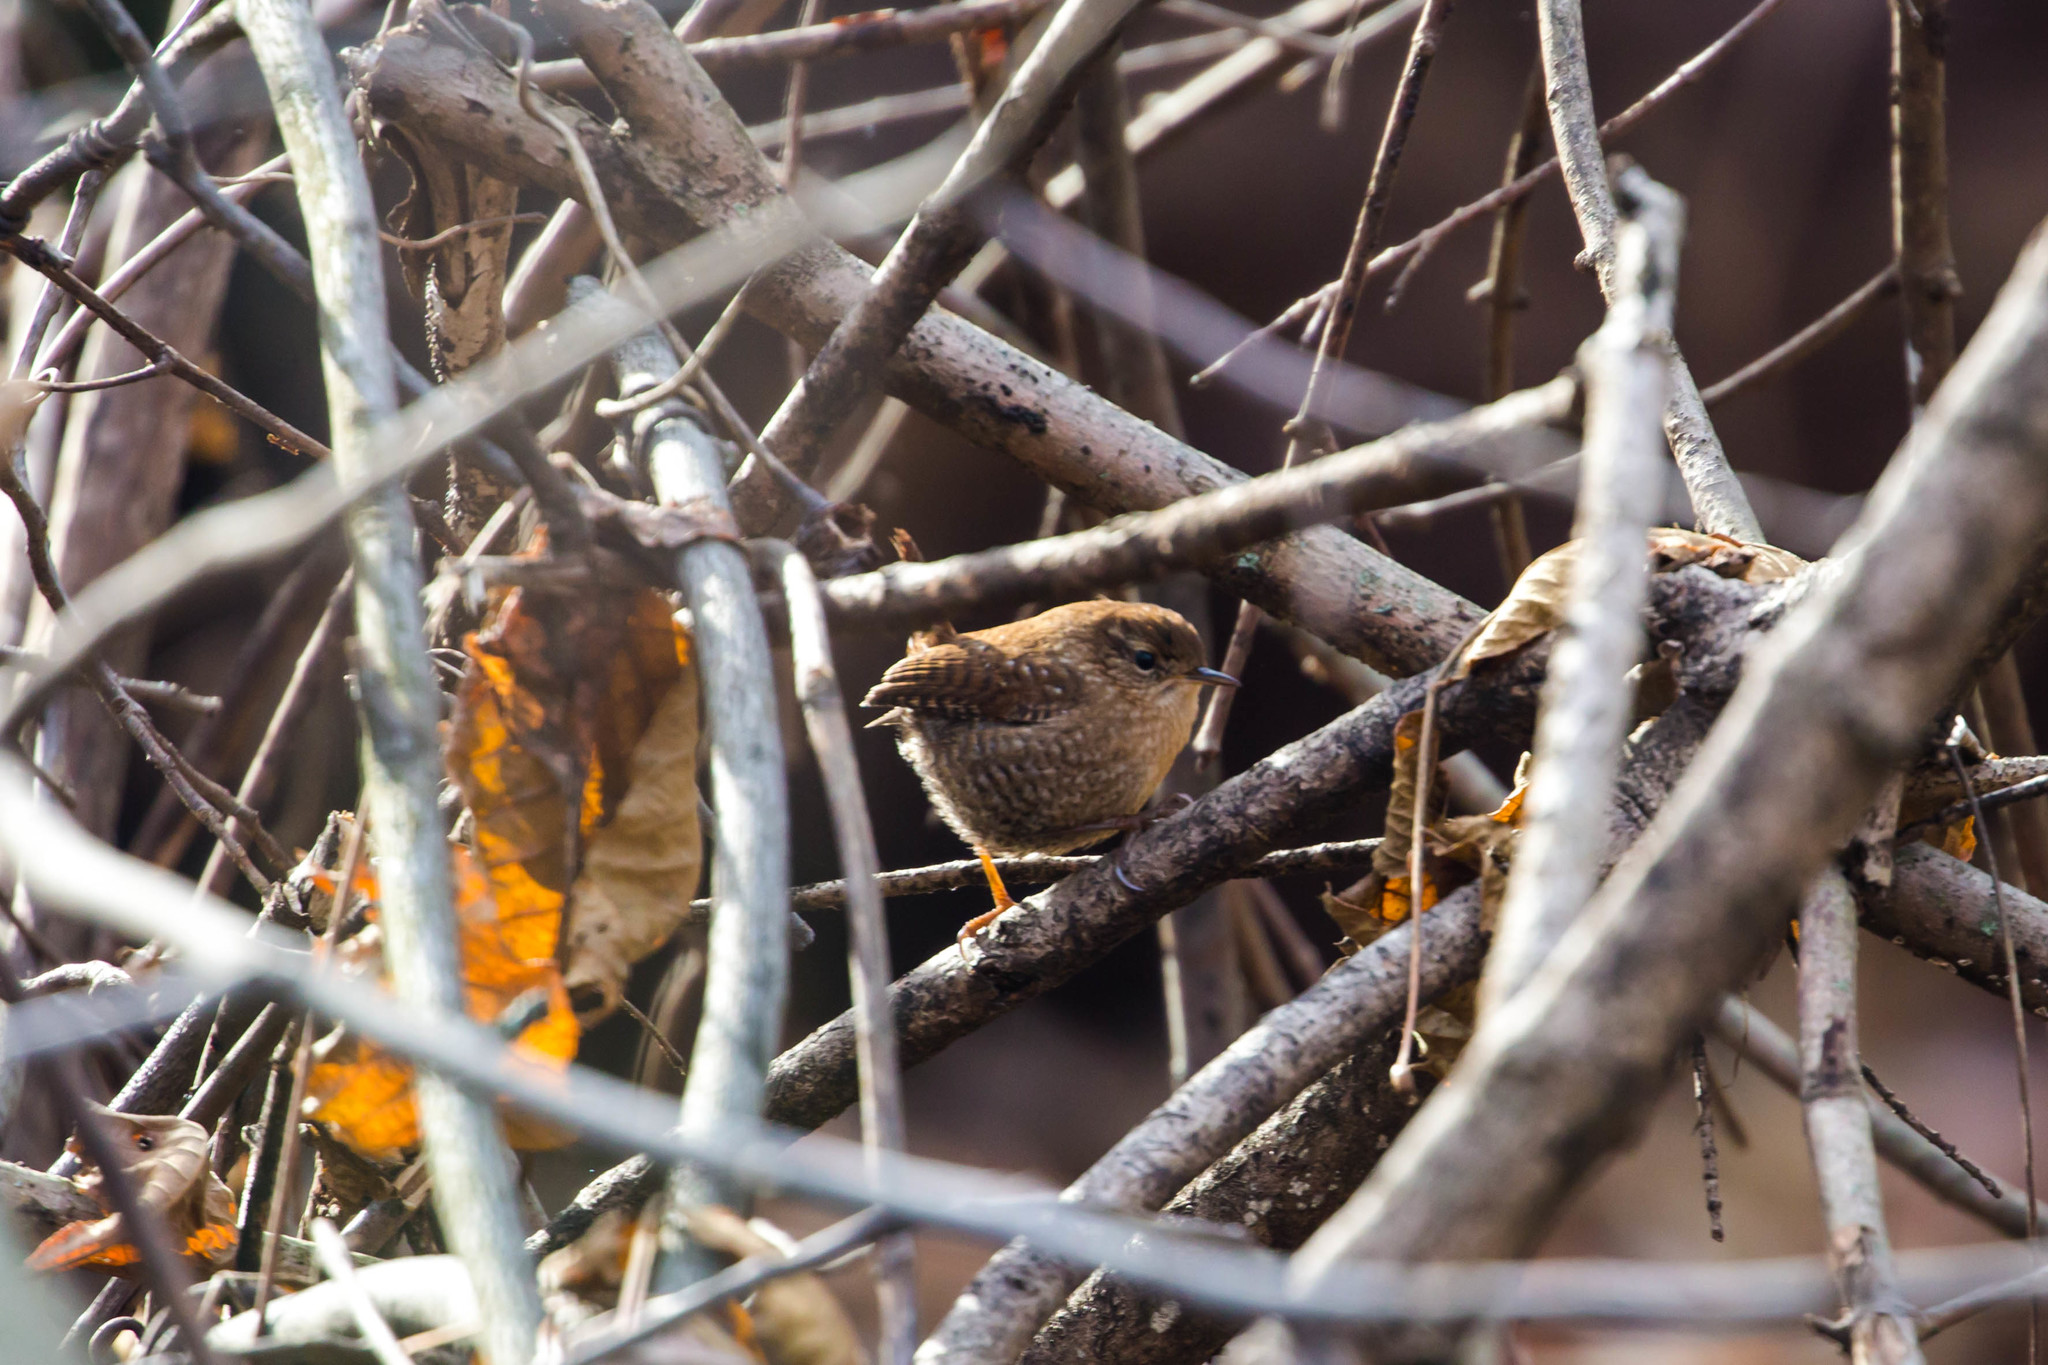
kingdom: Animalia
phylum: Chordata
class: Aves
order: Passeriformes
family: Troglodytidae
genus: Troglodytes
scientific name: Troglodytes hiemalis
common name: Winter wren
